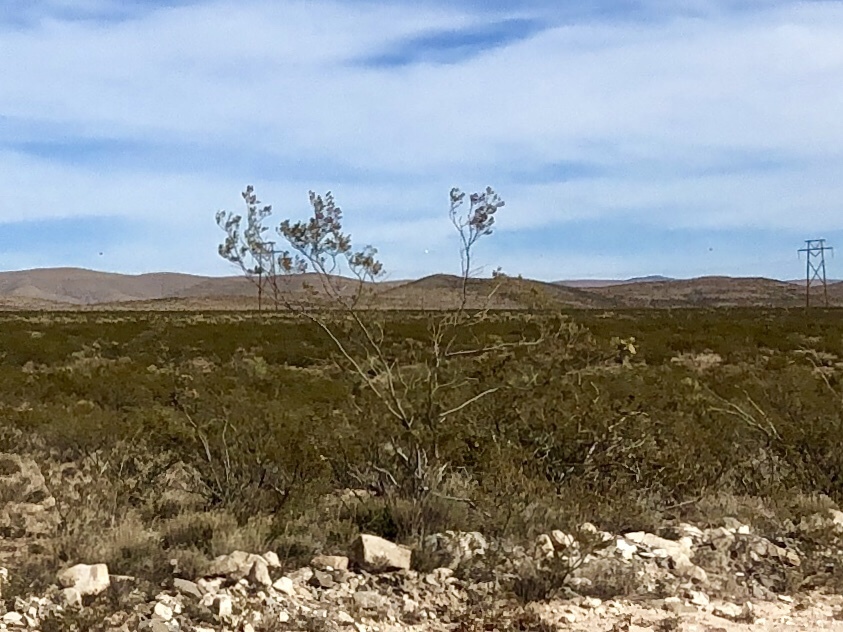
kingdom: Plantae
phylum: Tracheophyta
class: Magnoliopsida
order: Zygophyllales
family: Zygophyllaceae
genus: Larrea
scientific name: Larrea tridentata
